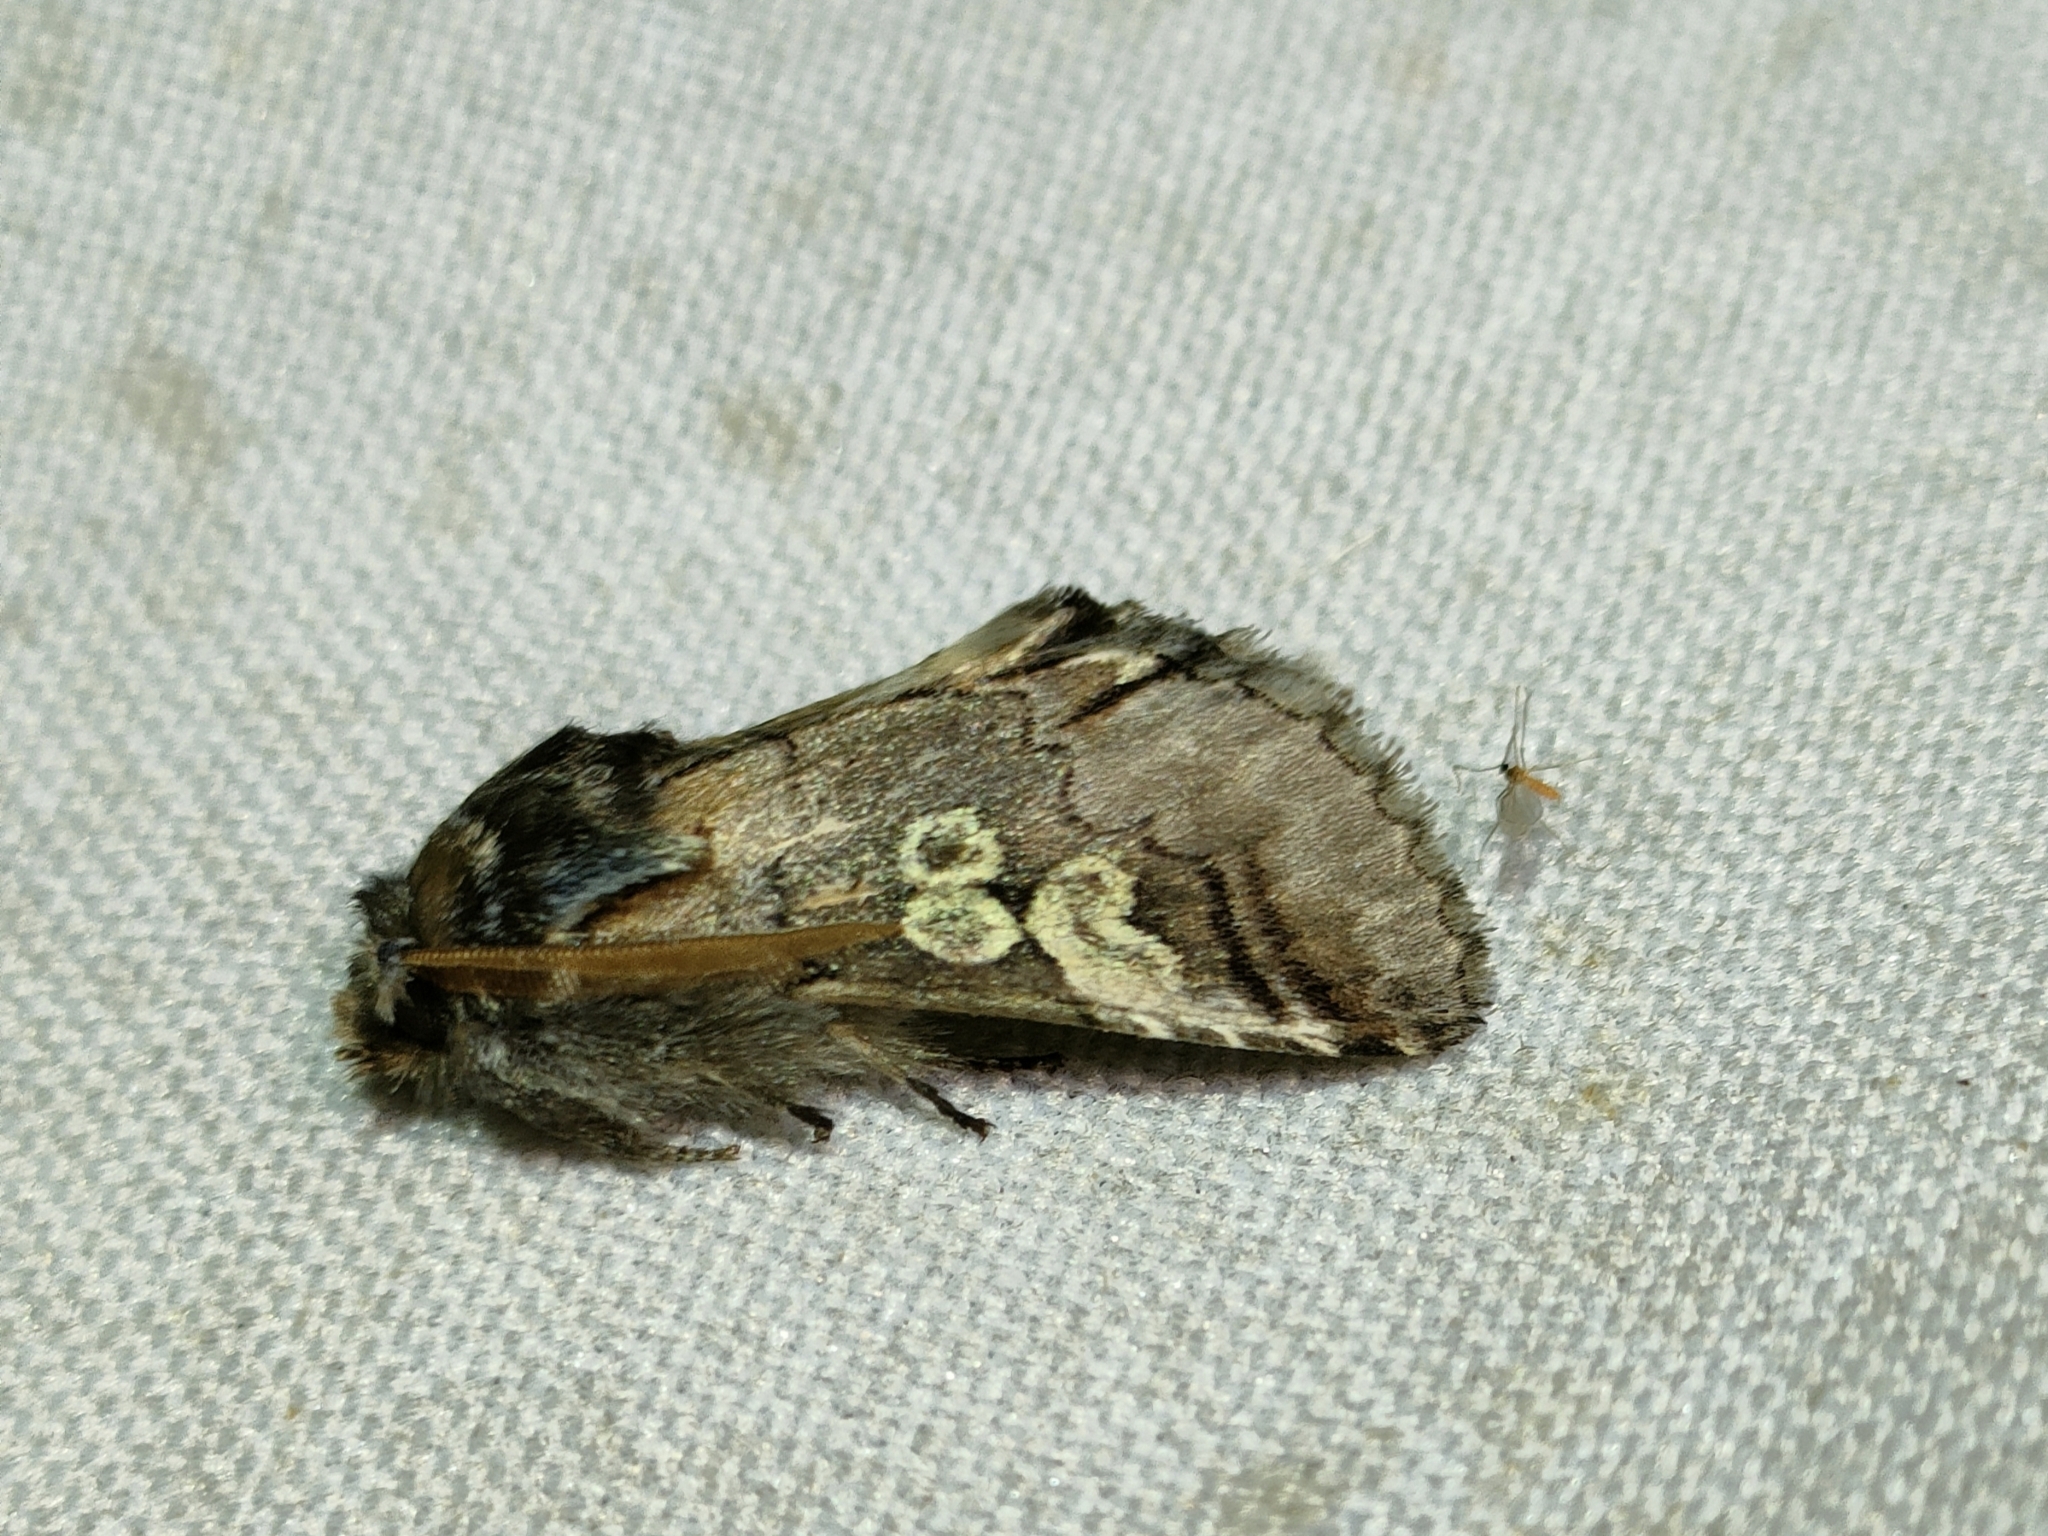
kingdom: Animalia
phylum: Arthropoda
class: Insecta
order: Lepidoptera
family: Noctuidae
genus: Diloba
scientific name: Diloba caeruleocephala
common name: Figure of eight
